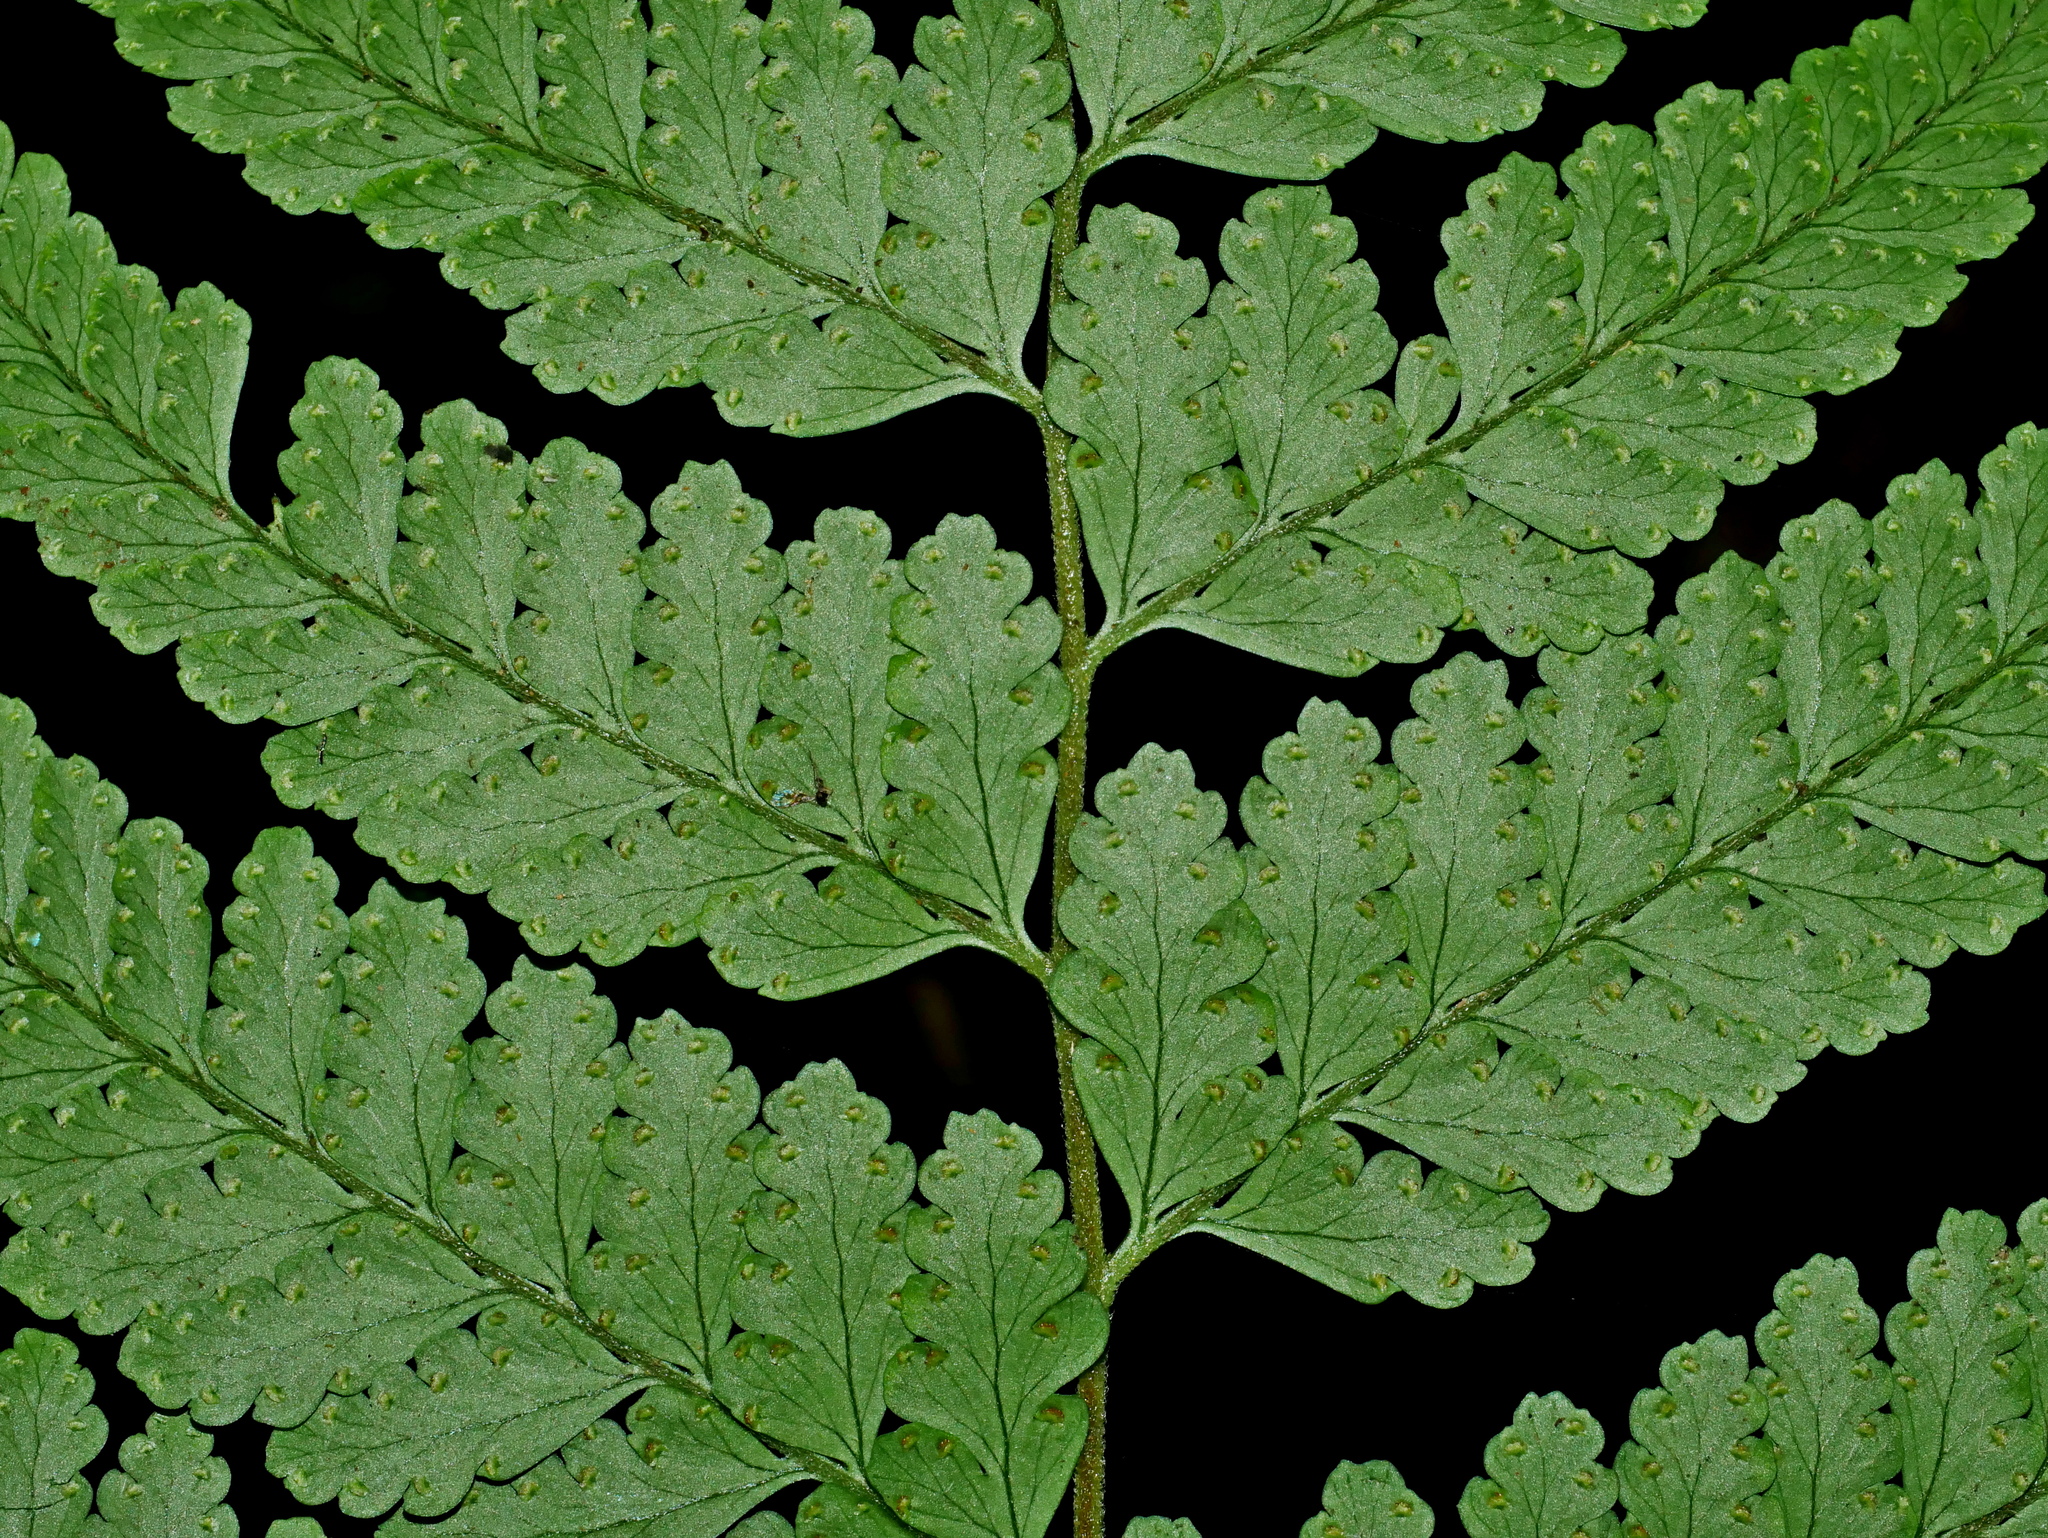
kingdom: Plantae
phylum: Tracheophyta
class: Polypodiopsida
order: Polypodiales
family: Dennstaedtiaceae
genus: Microlepia
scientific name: Microlepia obtusiloba
